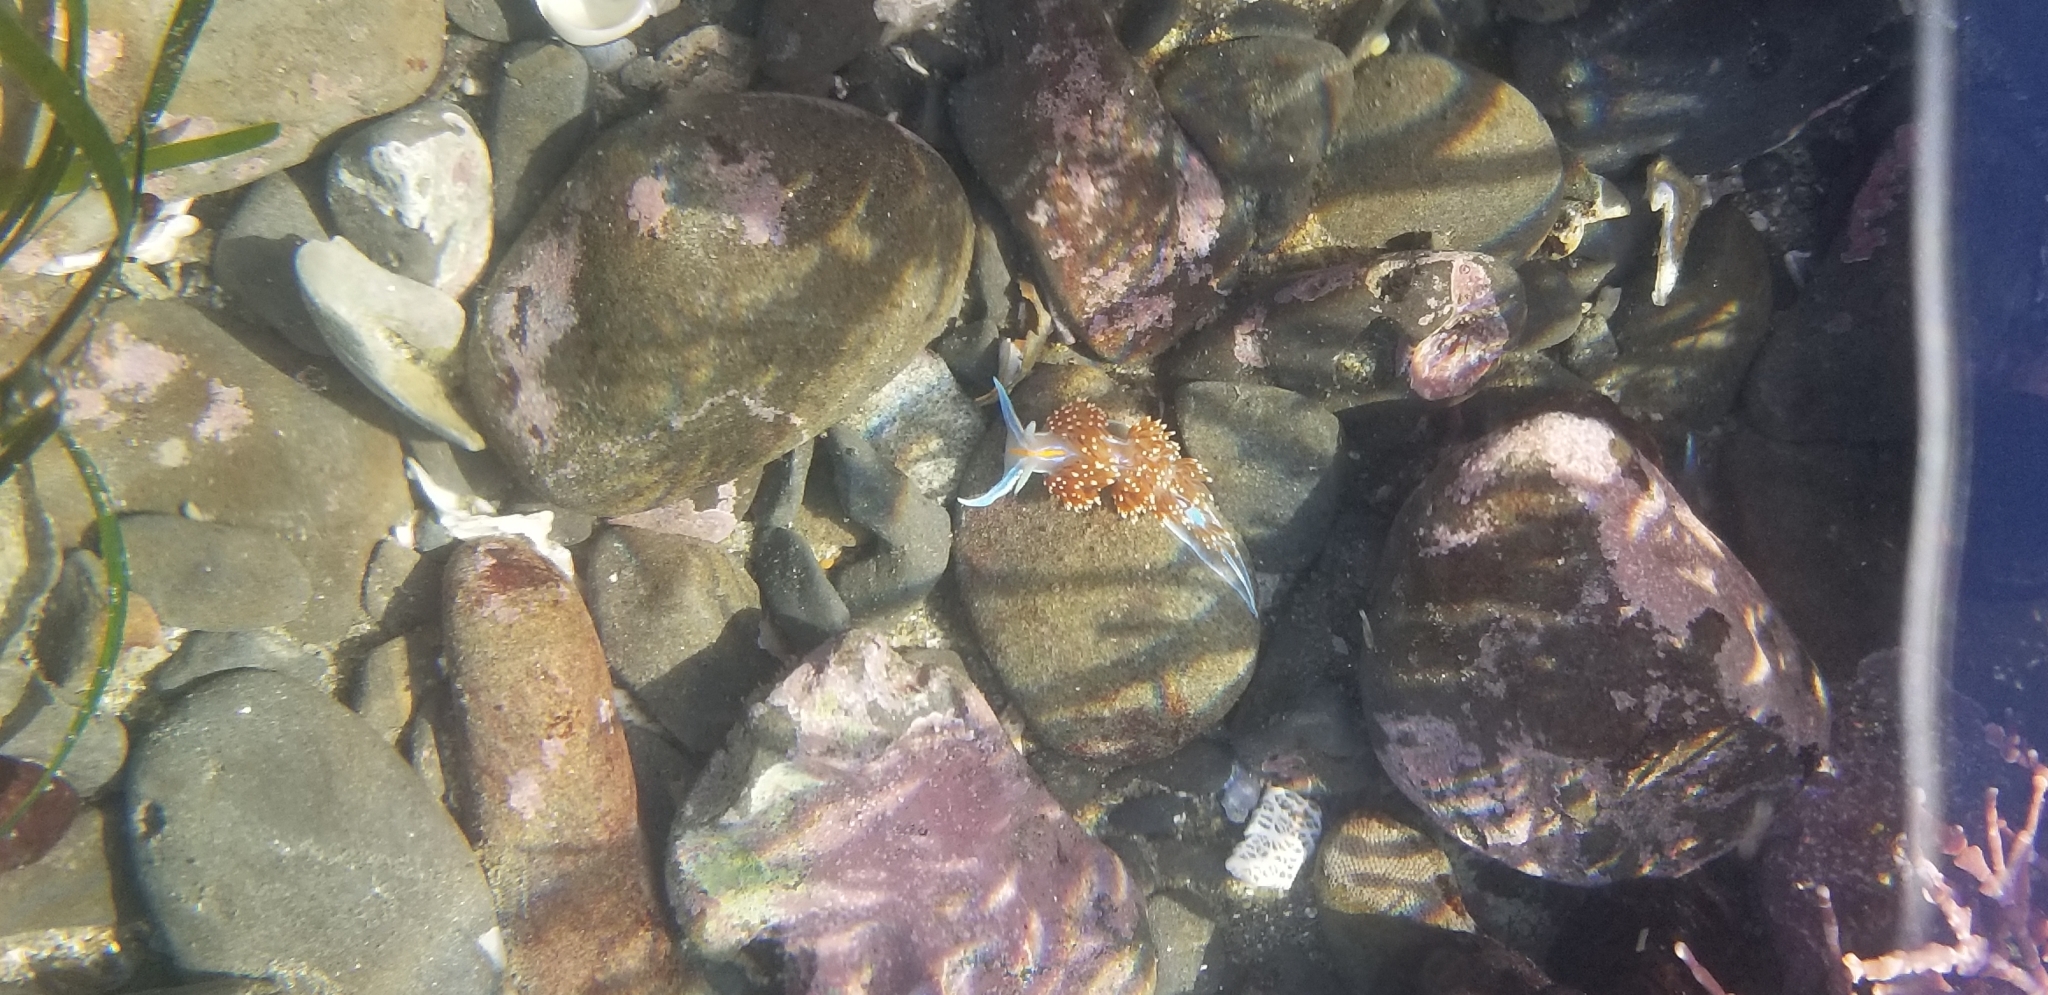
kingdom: Animalia
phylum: Mollusca
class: Gastropoda
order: Nudibranchia
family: Myrrhinidae
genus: Hermissenda
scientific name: Hermissenda opalescens
